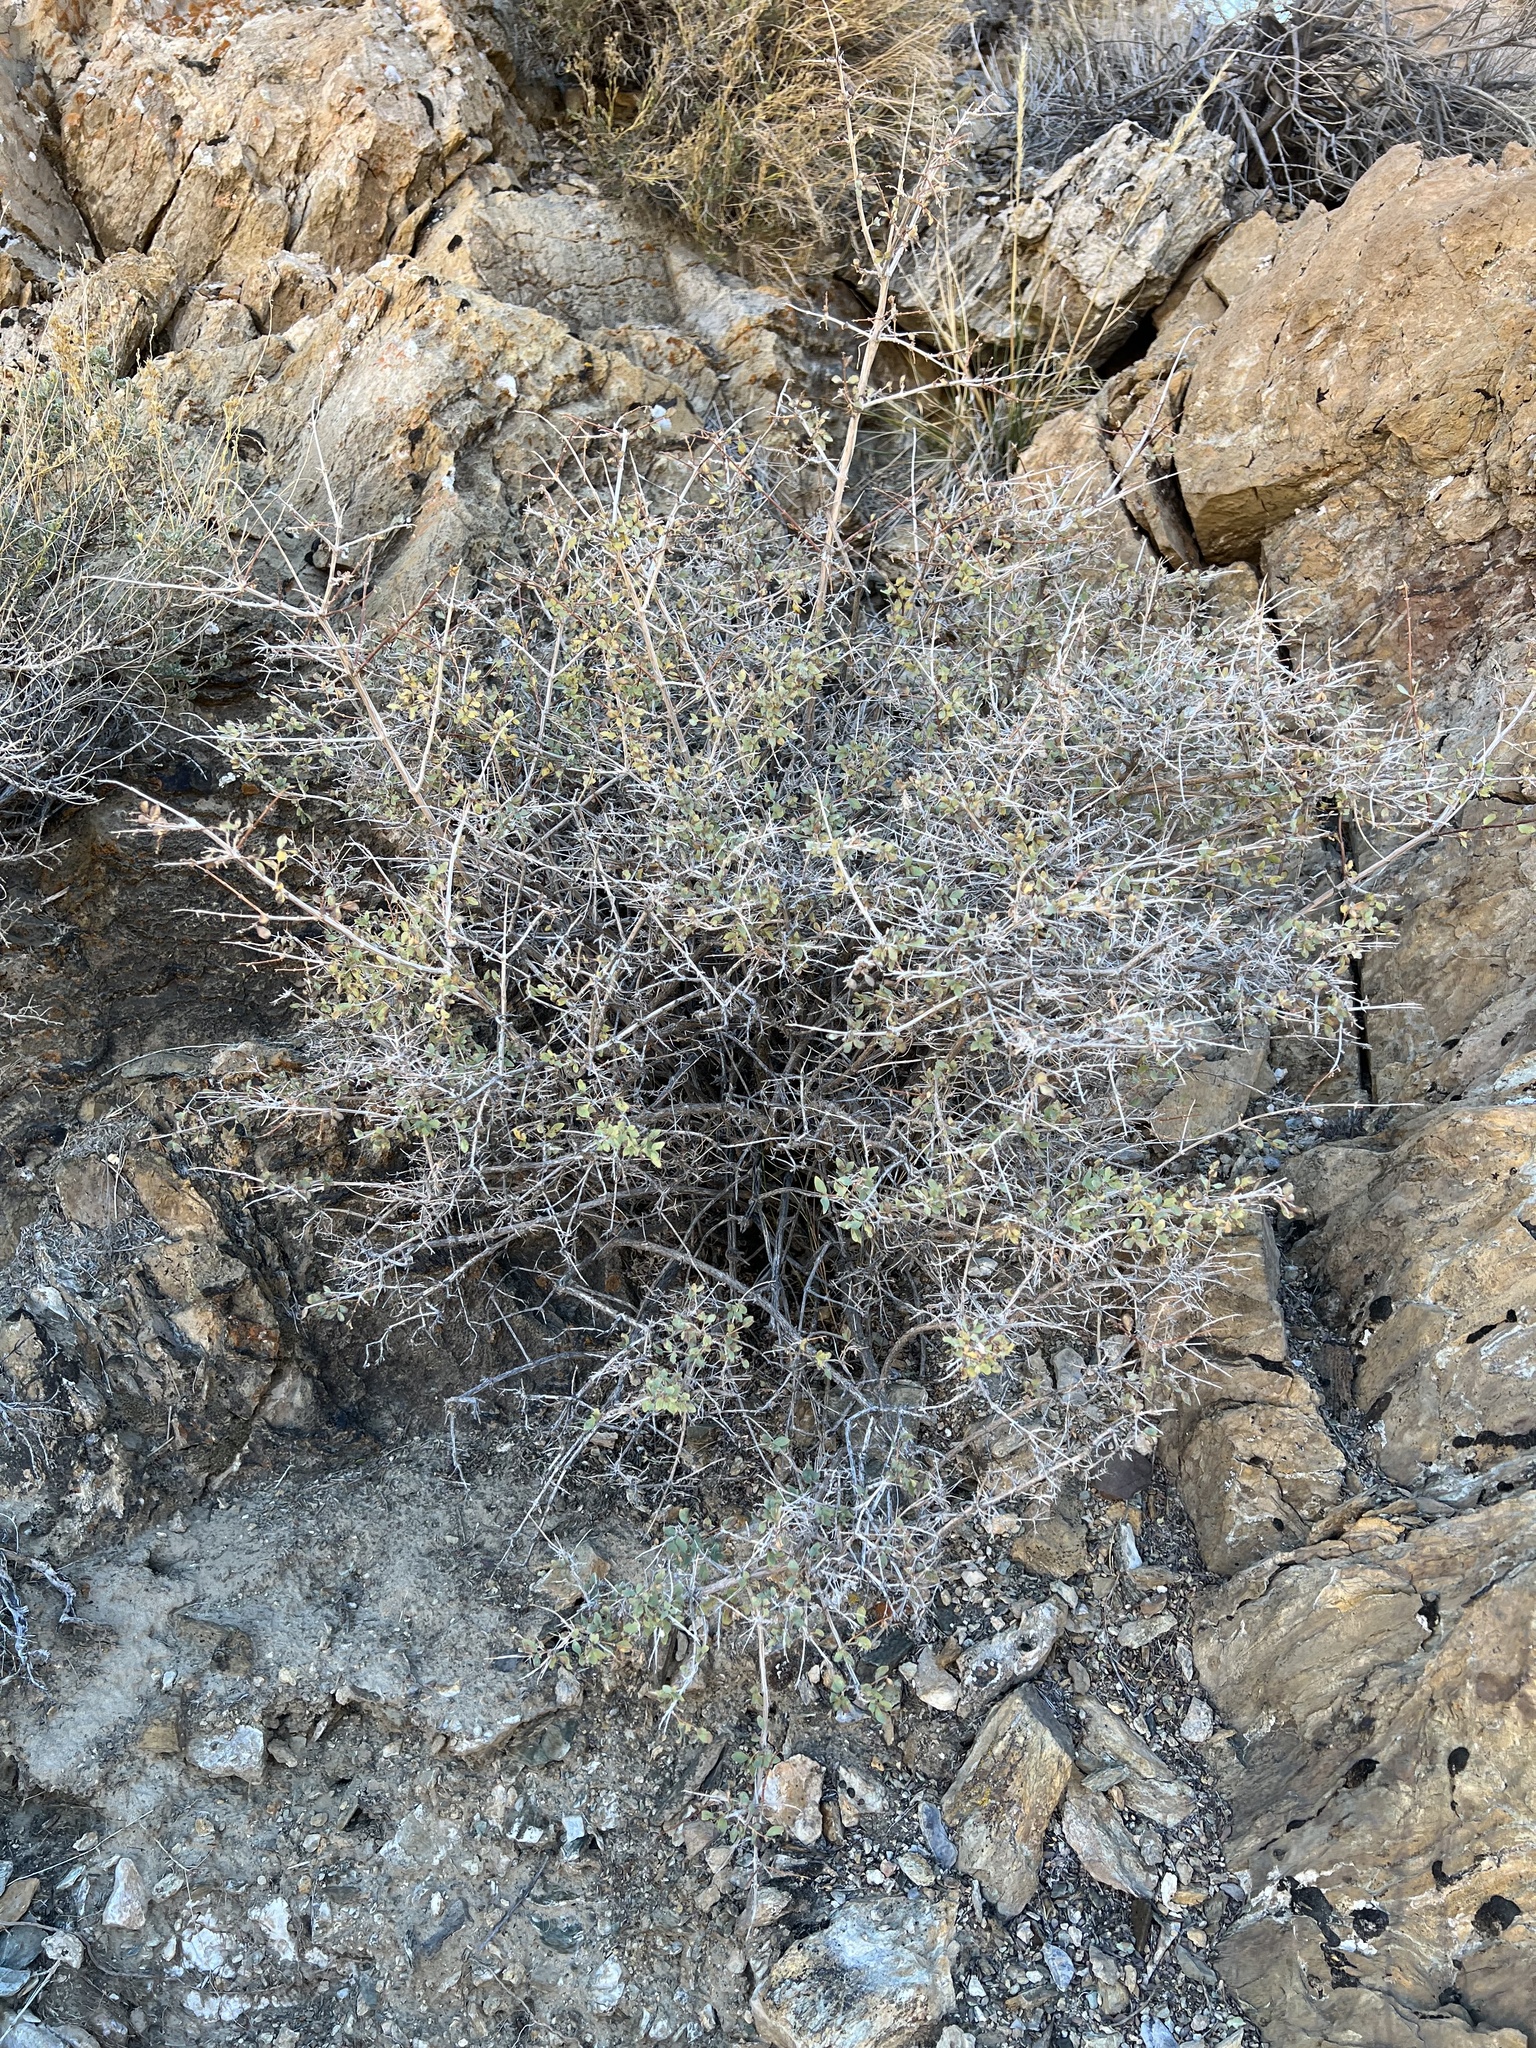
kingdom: Plantae
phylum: Tracheophyta
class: Magnoliopsida
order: Dipsacales
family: Caprifoliaceae
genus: Symphoricarpos
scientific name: Symphoricarpos longiflorus
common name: Fragrant snowberry
